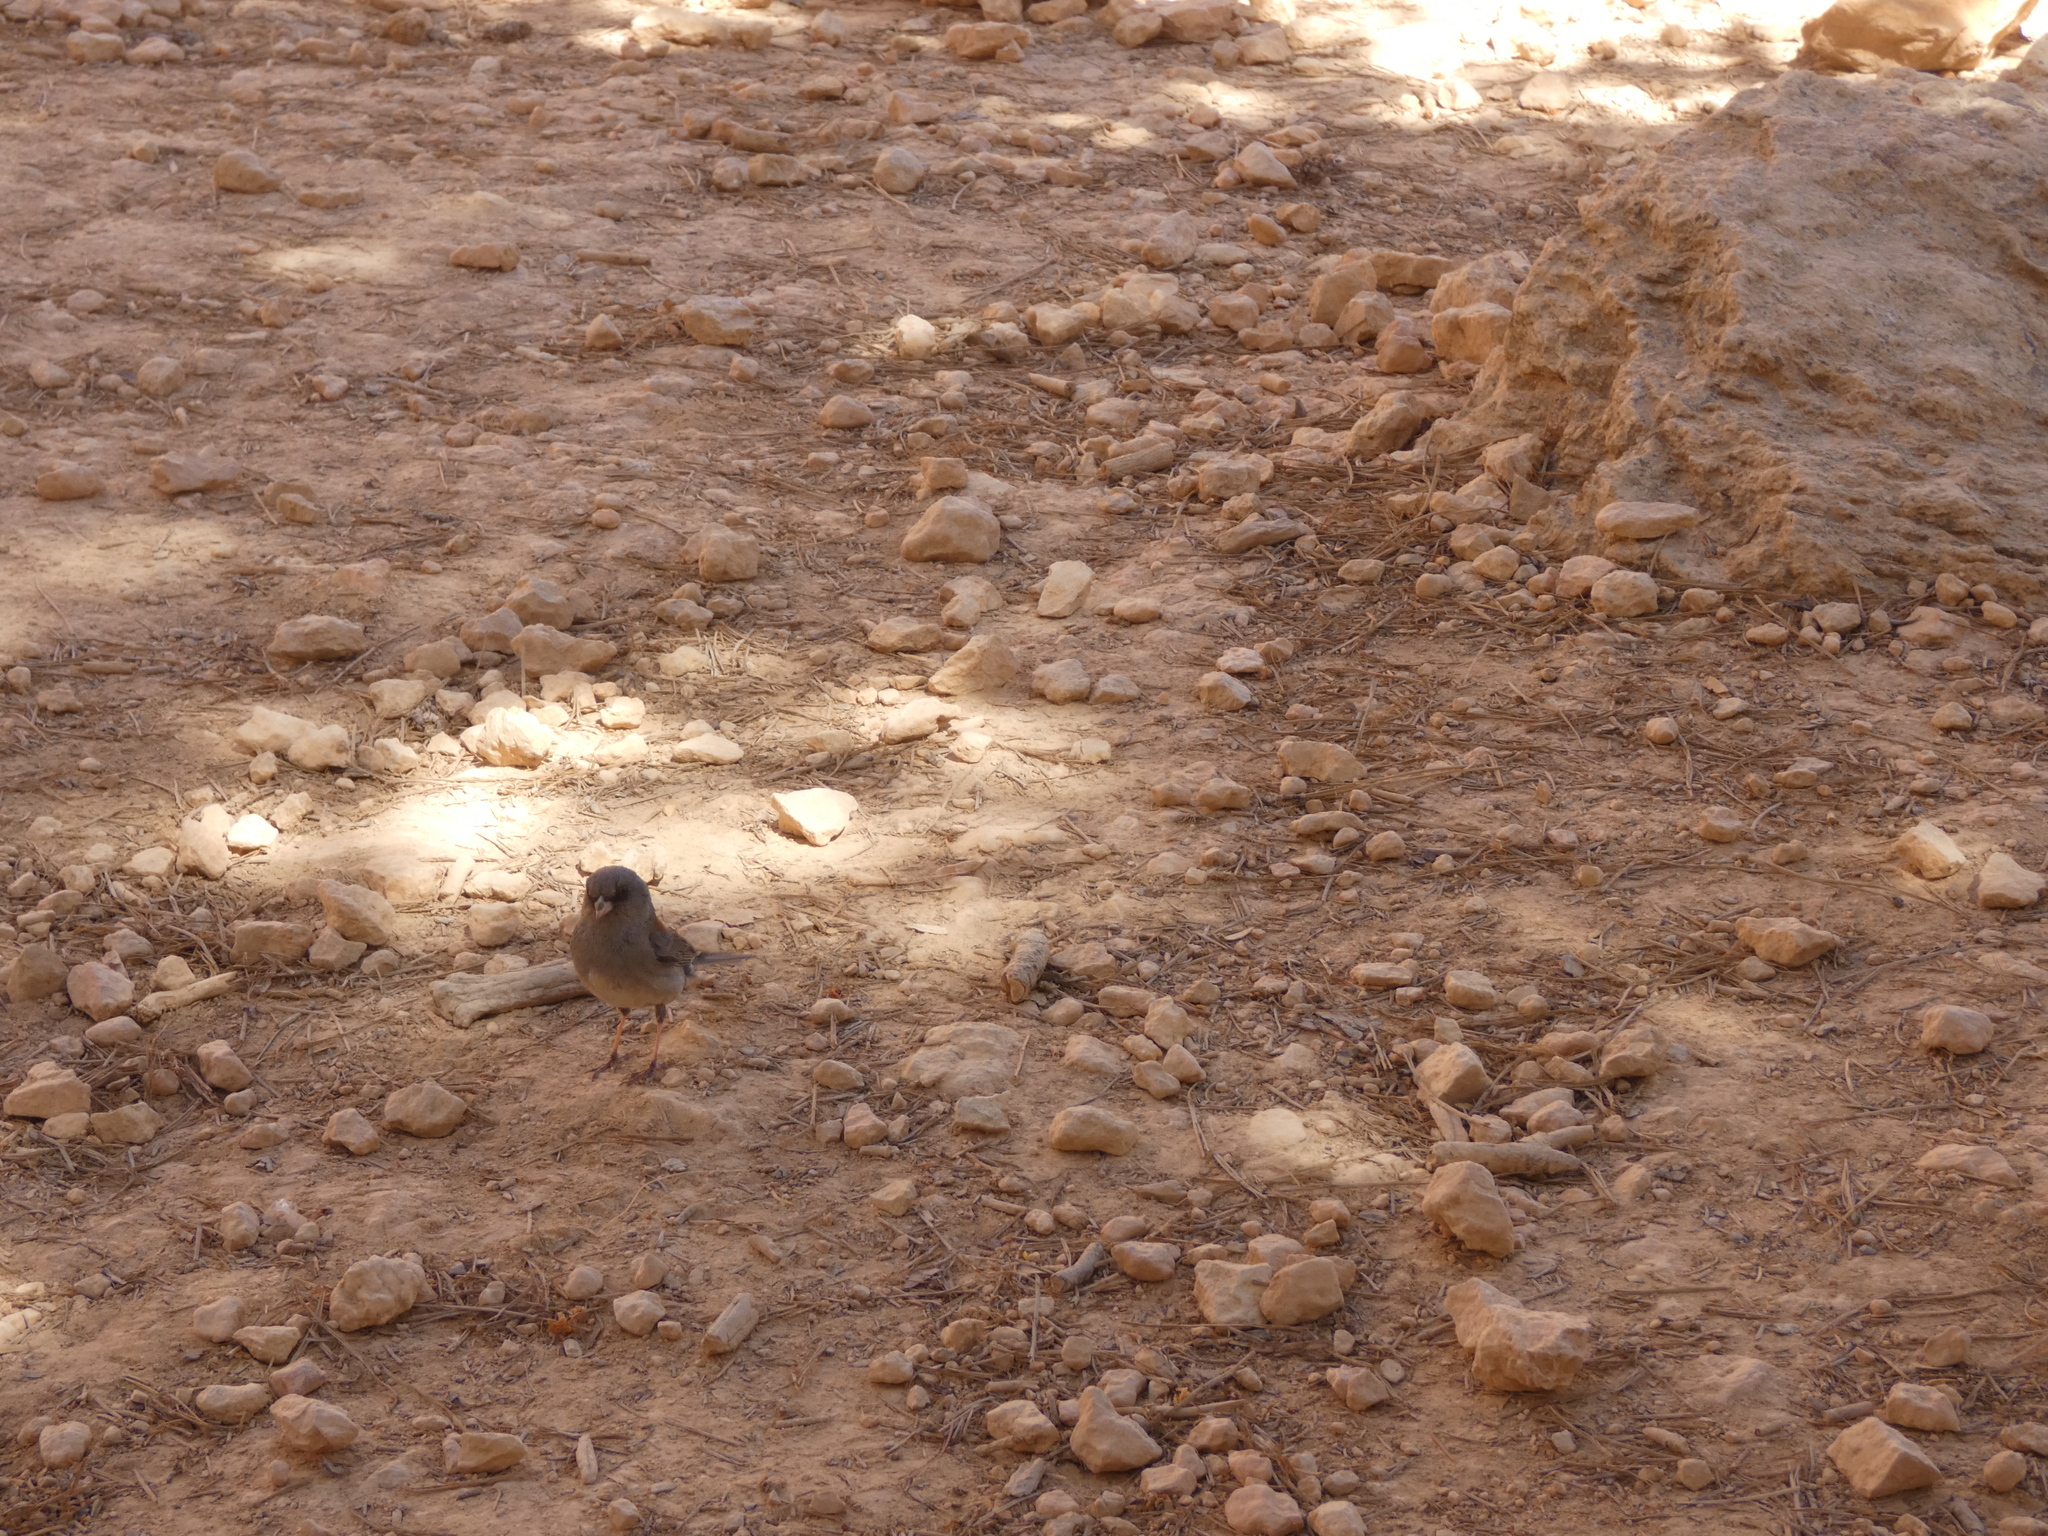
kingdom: Animalia
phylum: Chordata
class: Aves
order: Passeriformes
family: Passerellidae
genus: Junco
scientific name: Junco hyemalis
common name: Dark-eyed junco
